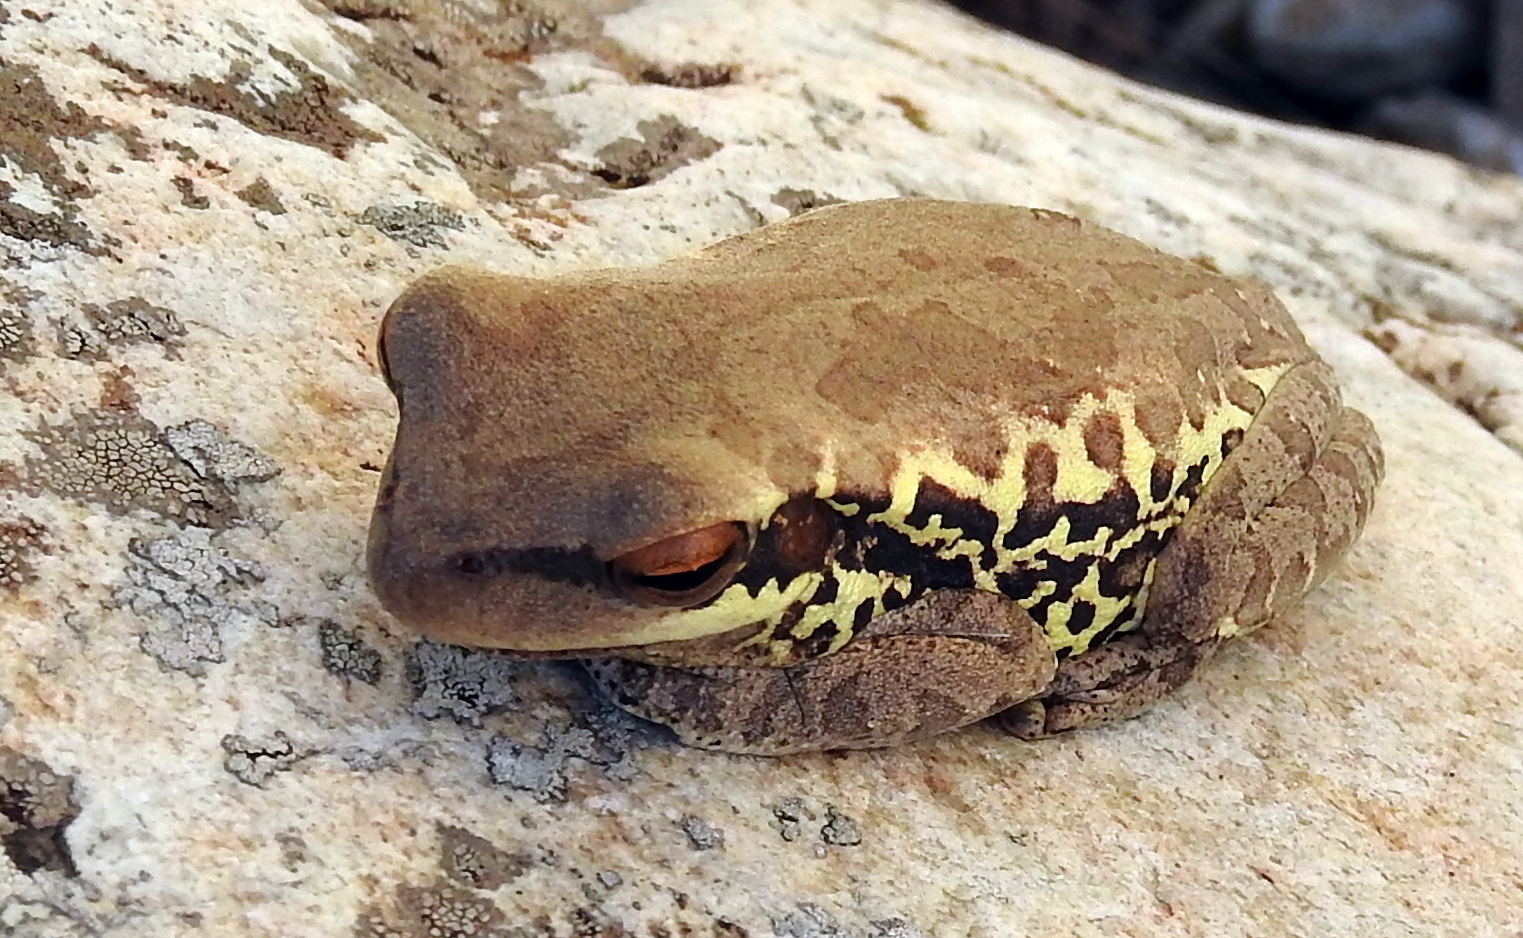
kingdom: Animalia
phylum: Chordata
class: Amphibia
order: Anura
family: Hylidae
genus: Boana
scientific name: Boana pulchella
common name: Montevideo treefrog
